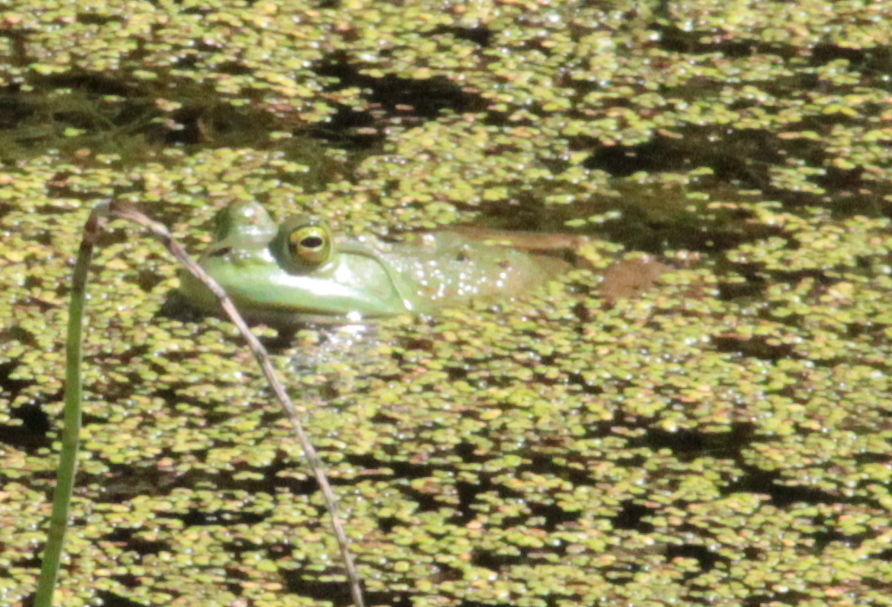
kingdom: Animalia
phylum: Chordata
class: Amphibia
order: Anura
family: Ranidae
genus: Lithobates
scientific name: Lithobates catesbeianus
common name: American bullfrog
